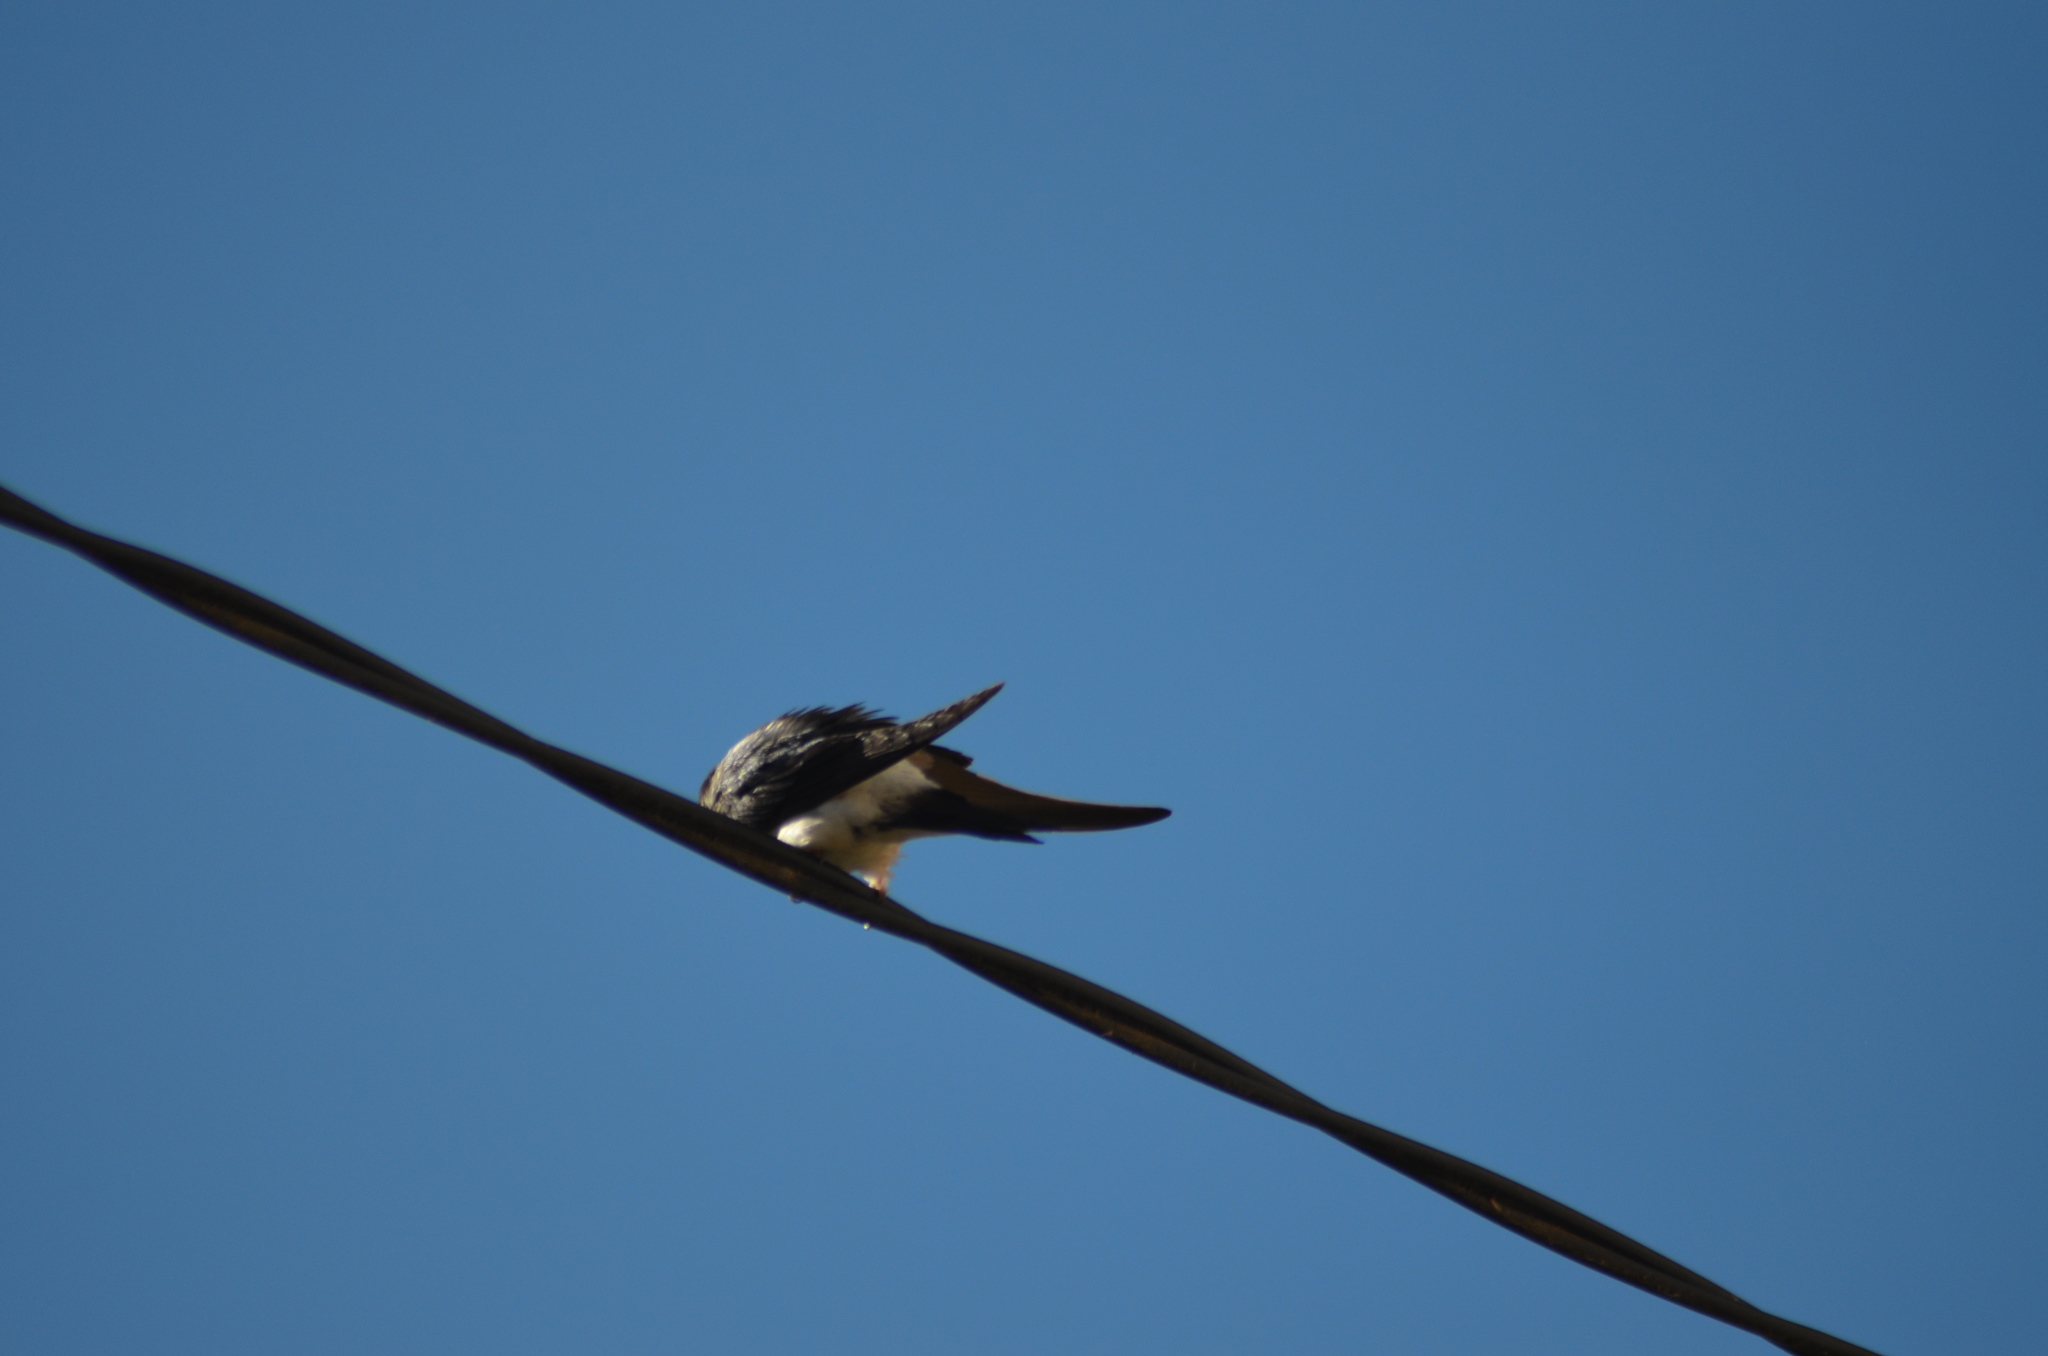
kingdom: Animalia
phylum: Chordata
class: Aves
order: Passeriformes
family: Hirundinidae
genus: Delichon
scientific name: Delichon urbicum
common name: Common house martin
